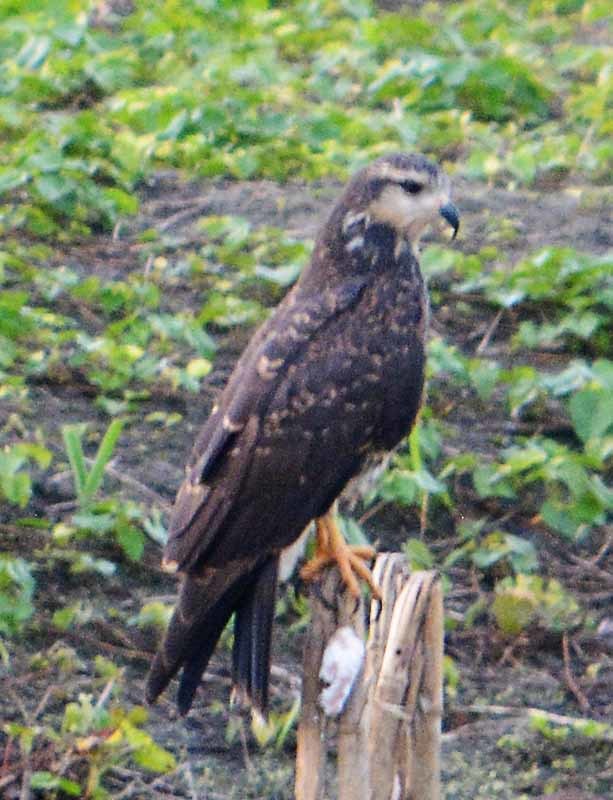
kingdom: Animalia
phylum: Chordata
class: Aves
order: Accipitriformes
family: Accipitridae
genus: Rostrhamus
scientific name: Rostrhamus sociabilis
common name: Snail kite
